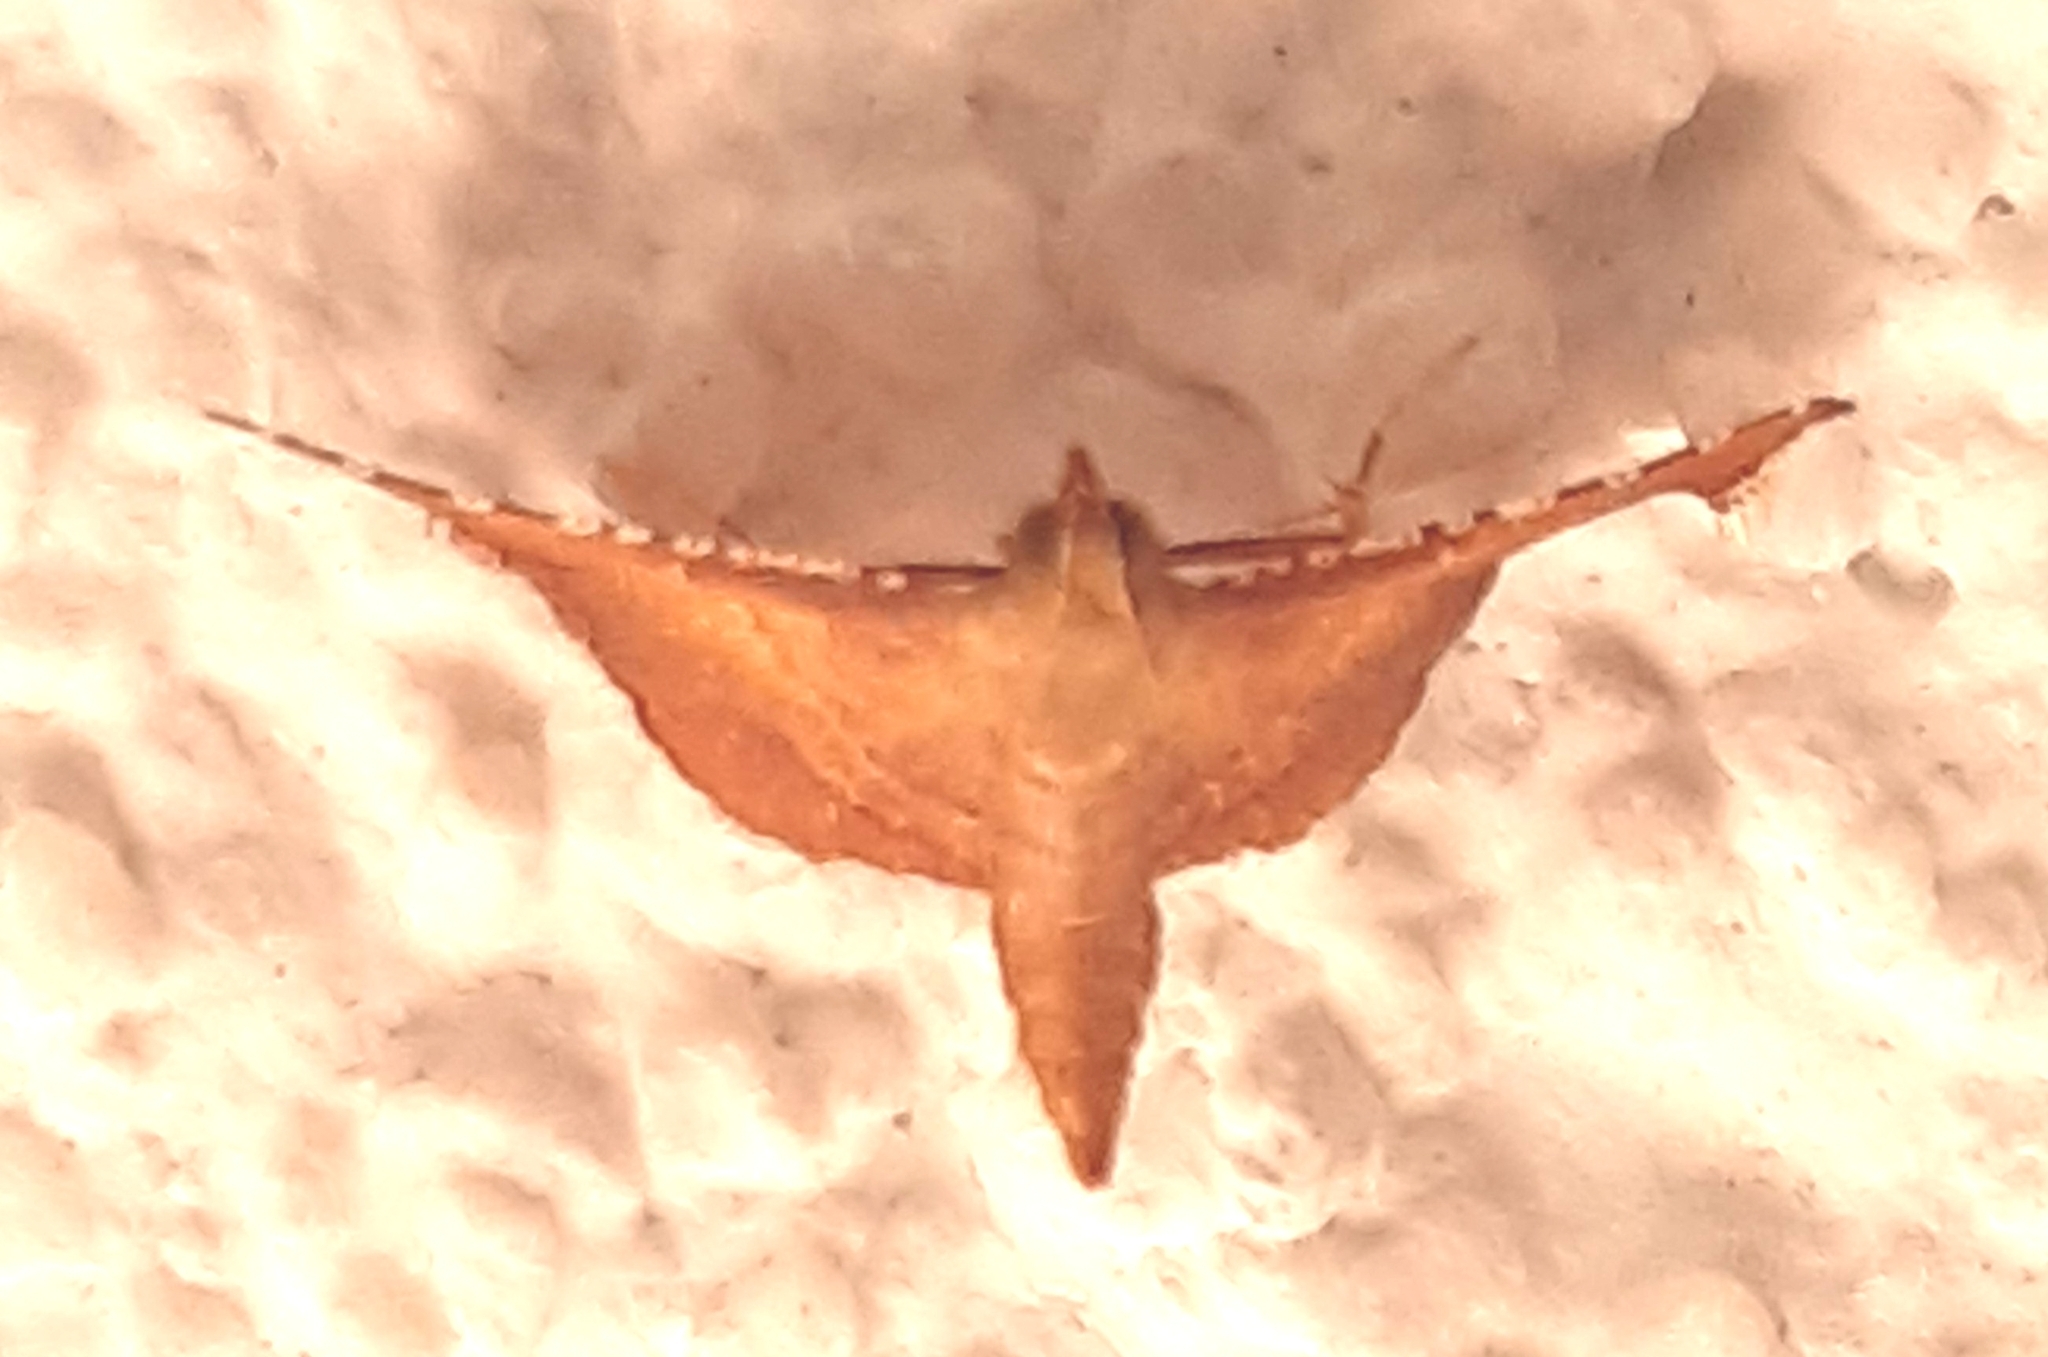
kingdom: Animalia
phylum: Arthropoda
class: Insecta
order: Lepidoptera
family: Pyralidae
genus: Endotricha
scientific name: Endotricha flammealis
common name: Rosy tabby
